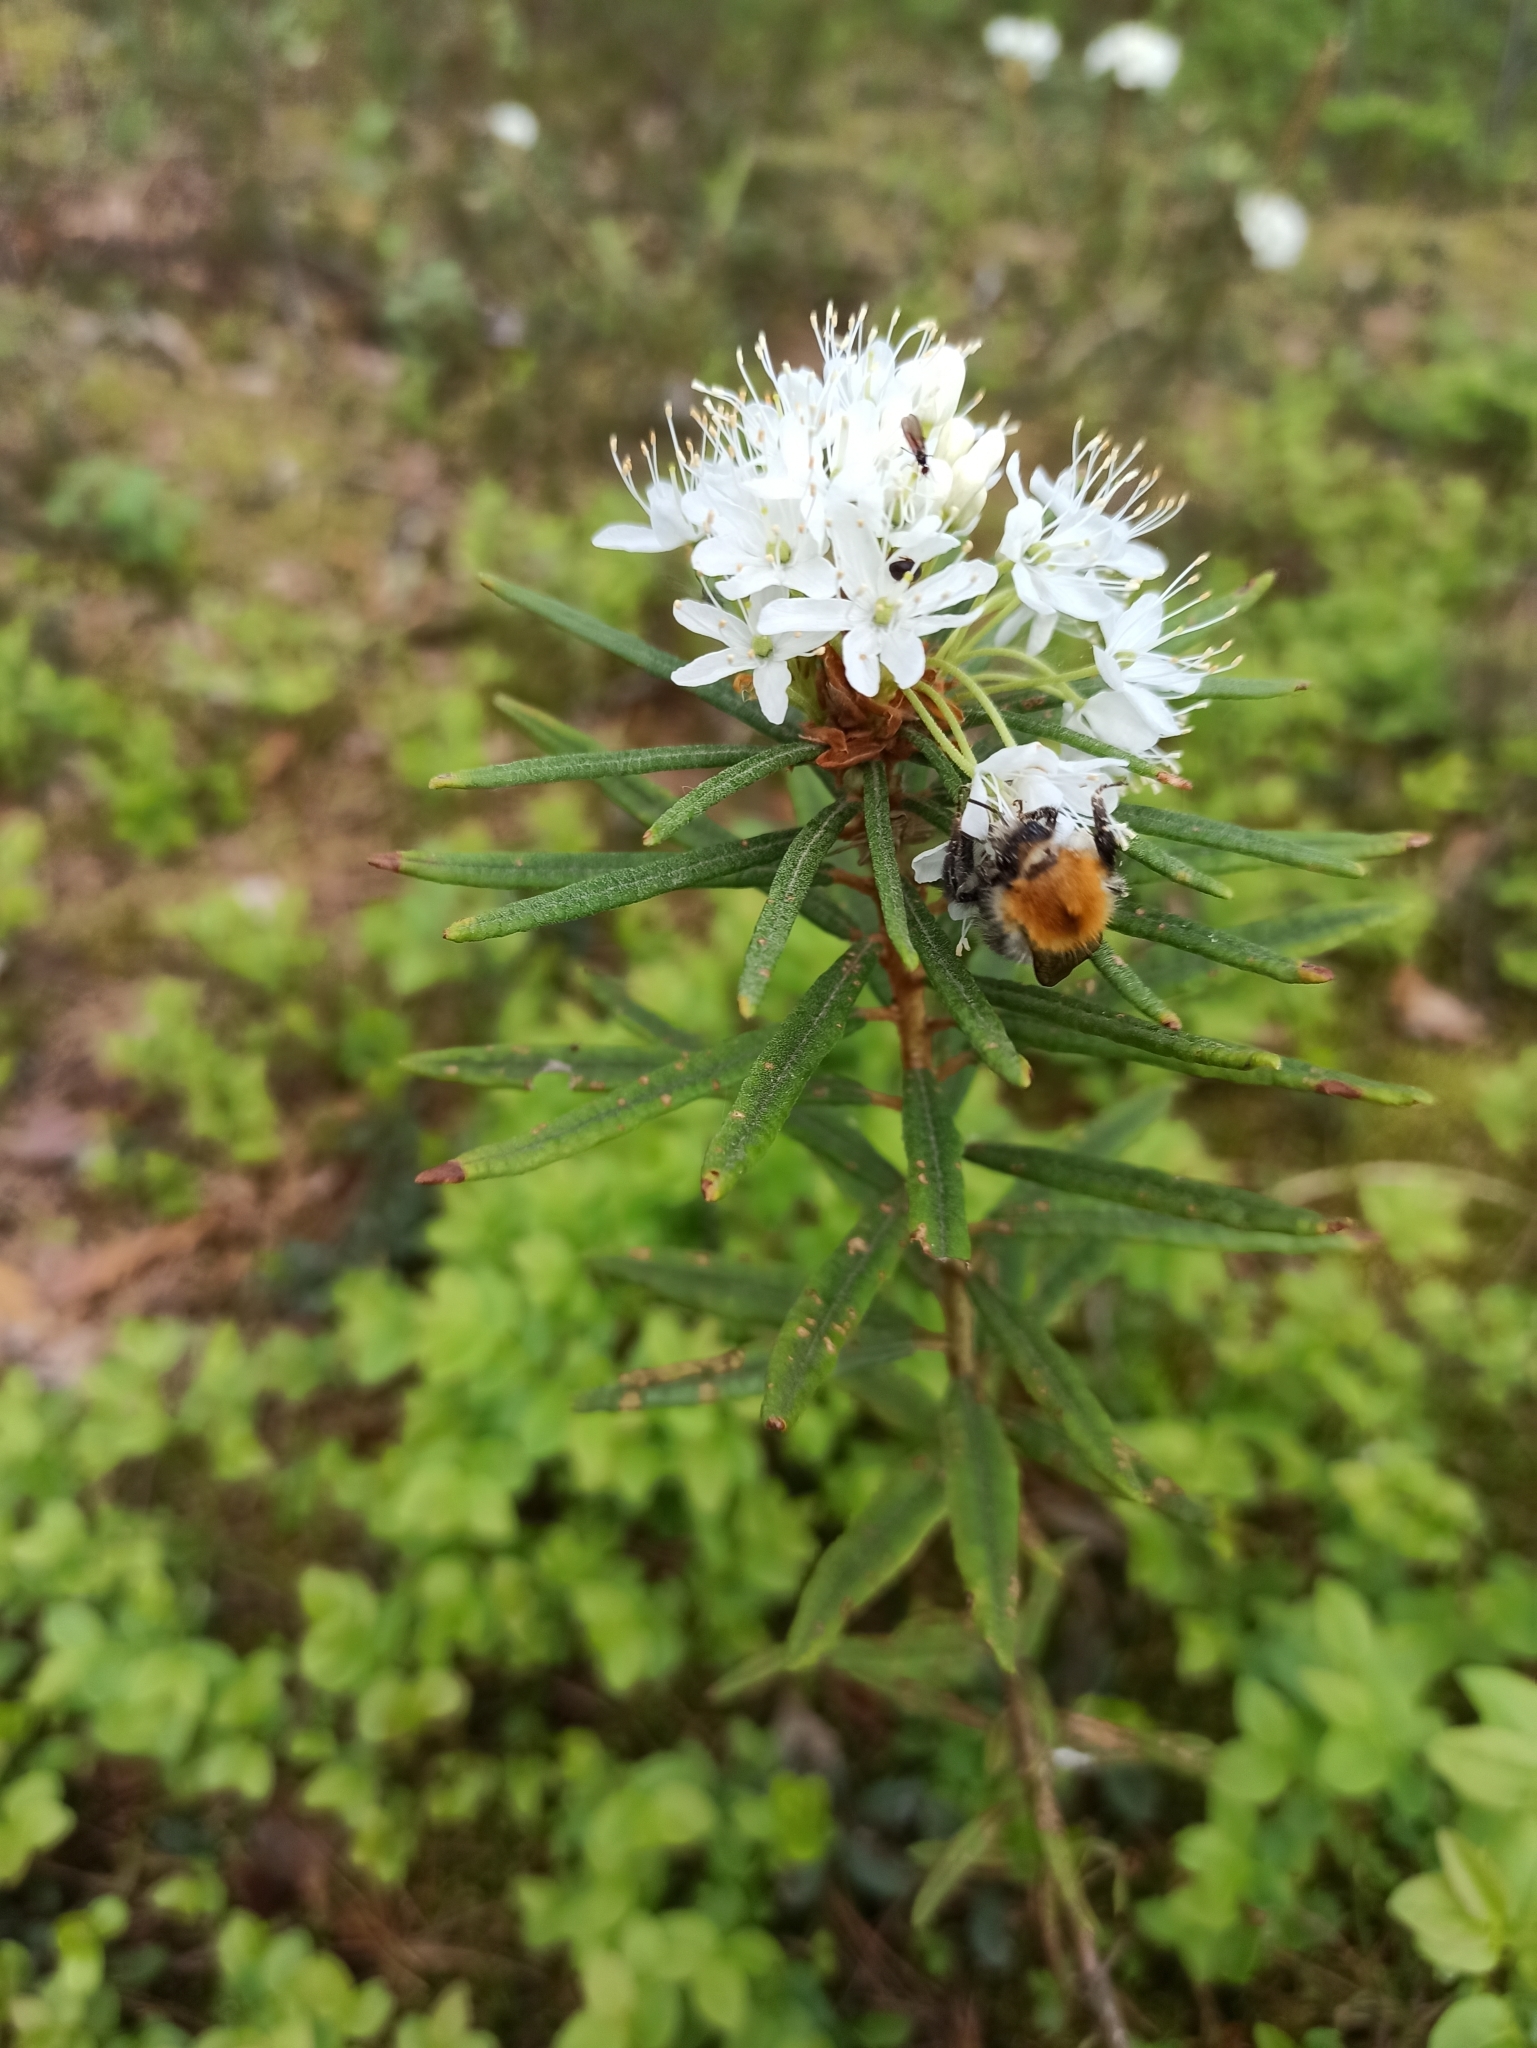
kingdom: Plantae
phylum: Tracheophyta
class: Magnoliopsida
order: Ericales
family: Ericaceae
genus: Rhododendron
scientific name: Rhododendron tomentosum
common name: Marsh labrador tea
